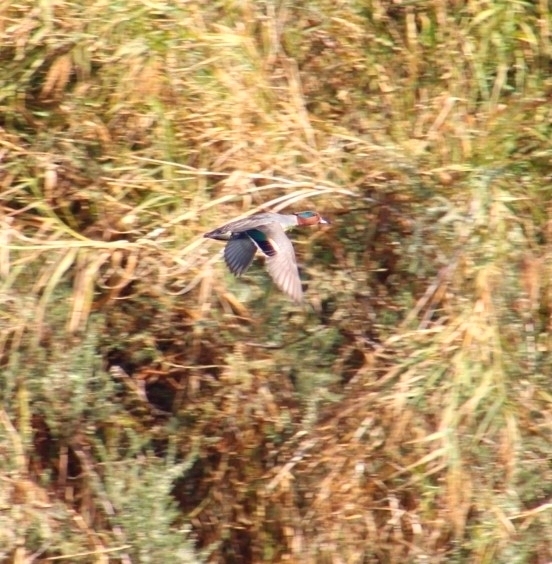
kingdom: Animalia
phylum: Chordata
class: Aves
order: Anseriformes
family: Anatidae
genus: Anas
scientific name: Anas crecca
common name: Eurasian teal
